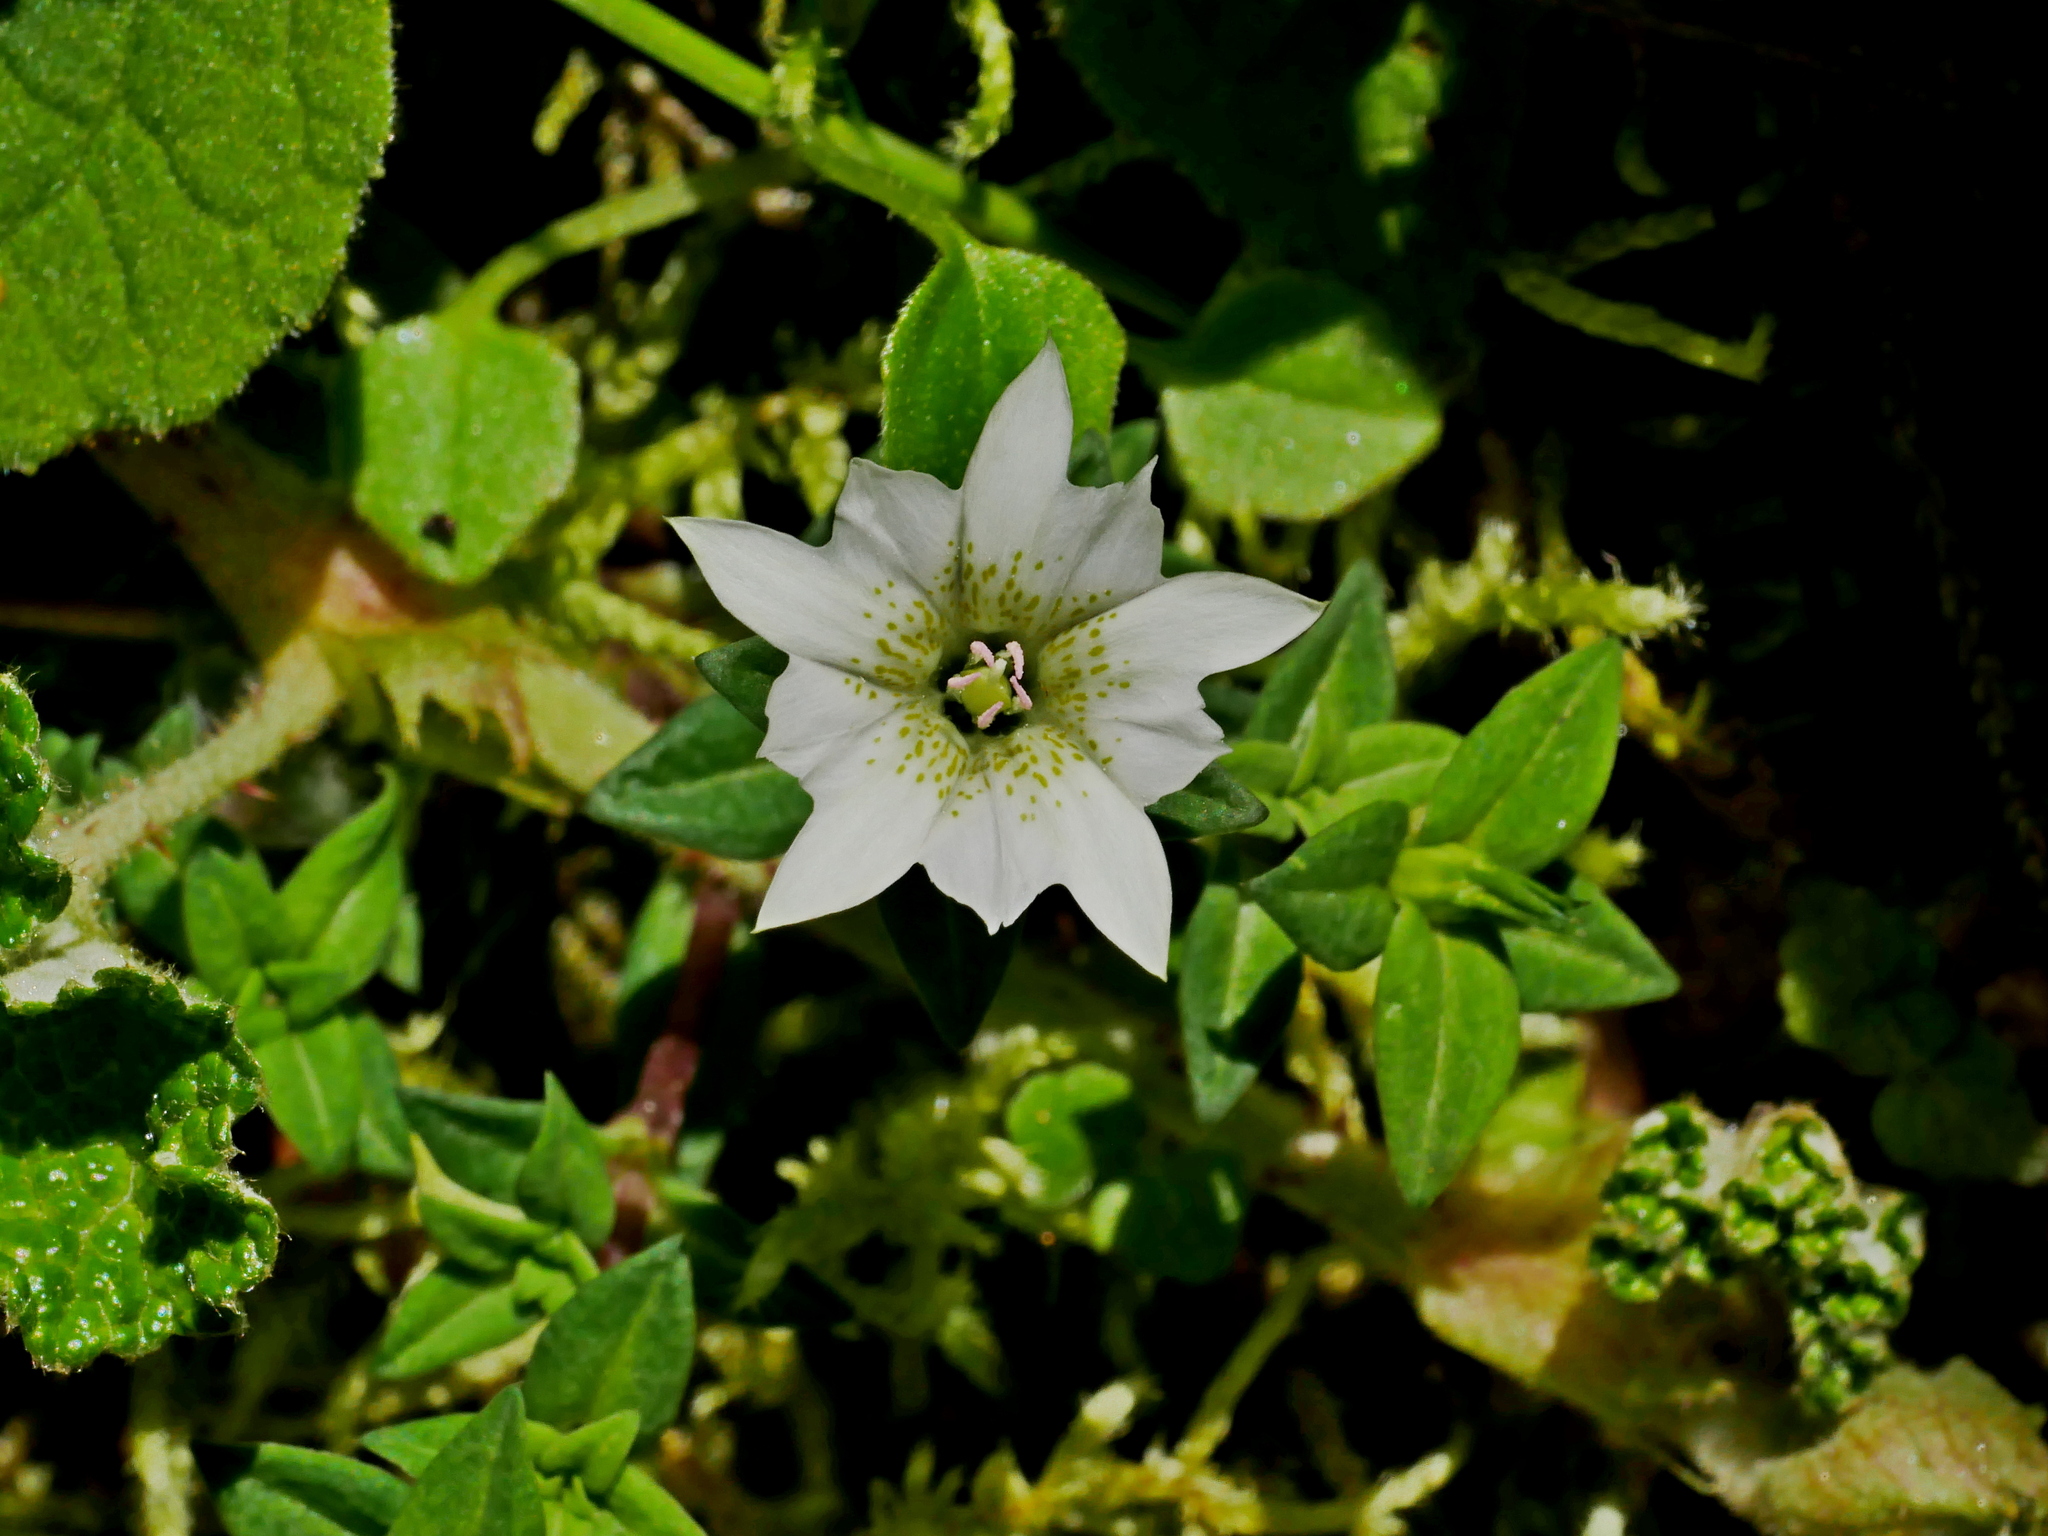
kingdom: Plantae
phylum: Tracheophyta
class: Magnoliopsida
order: Gentianales
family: Gentianaceae
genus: Gentiana
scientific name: Gentiana flavomaculata
